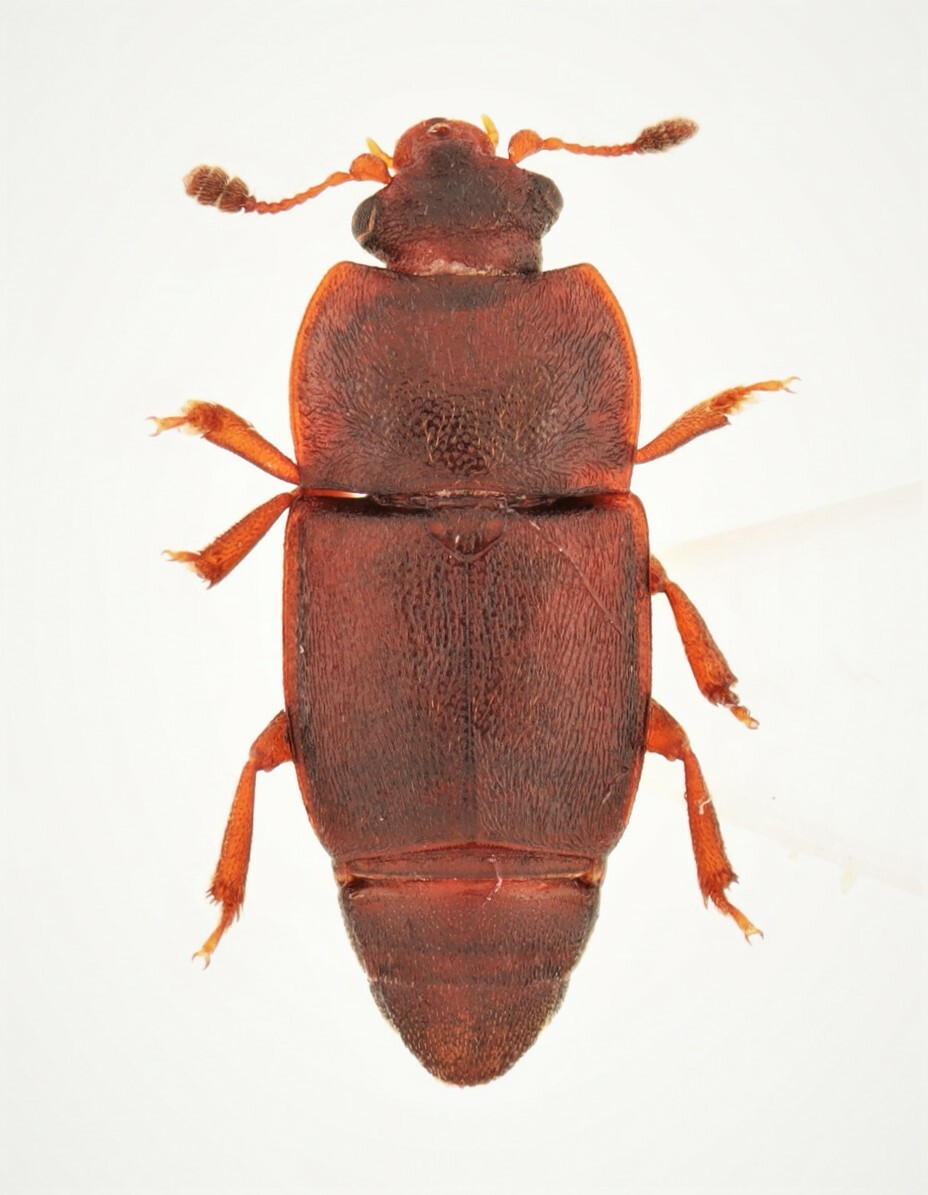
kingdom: Animalia
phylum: Arthropoda
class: Insecta
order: Coleoptera
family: Nitidulidae
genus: Carpophilus
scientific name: Carpophilus corticinus
